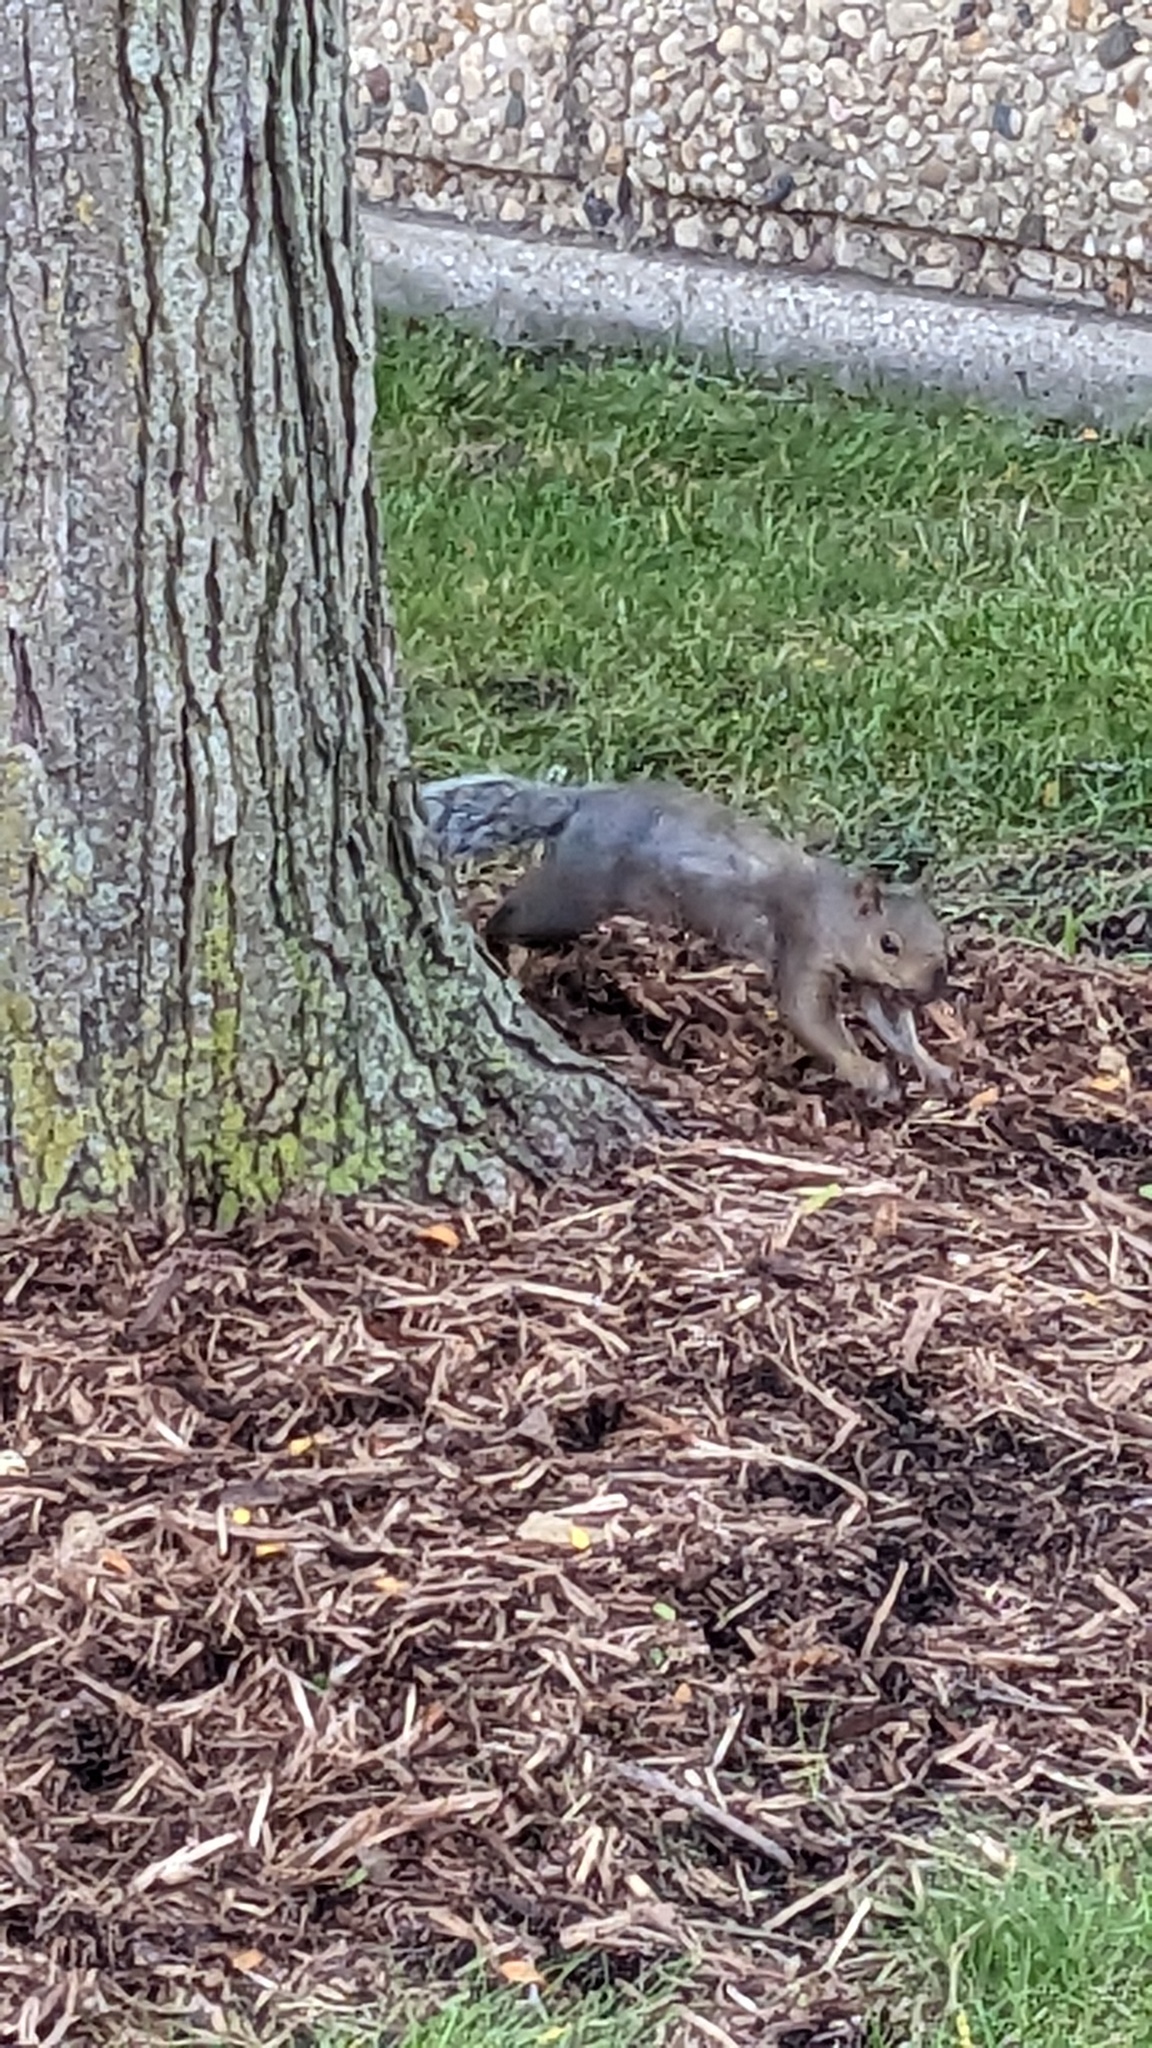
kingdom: Animalia
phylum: Chordata
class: Mammalia
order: Rodentia
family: Sciuridae
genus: Sciurus
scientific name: Sciurus carolinensis
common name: Eastern gray squirrel
